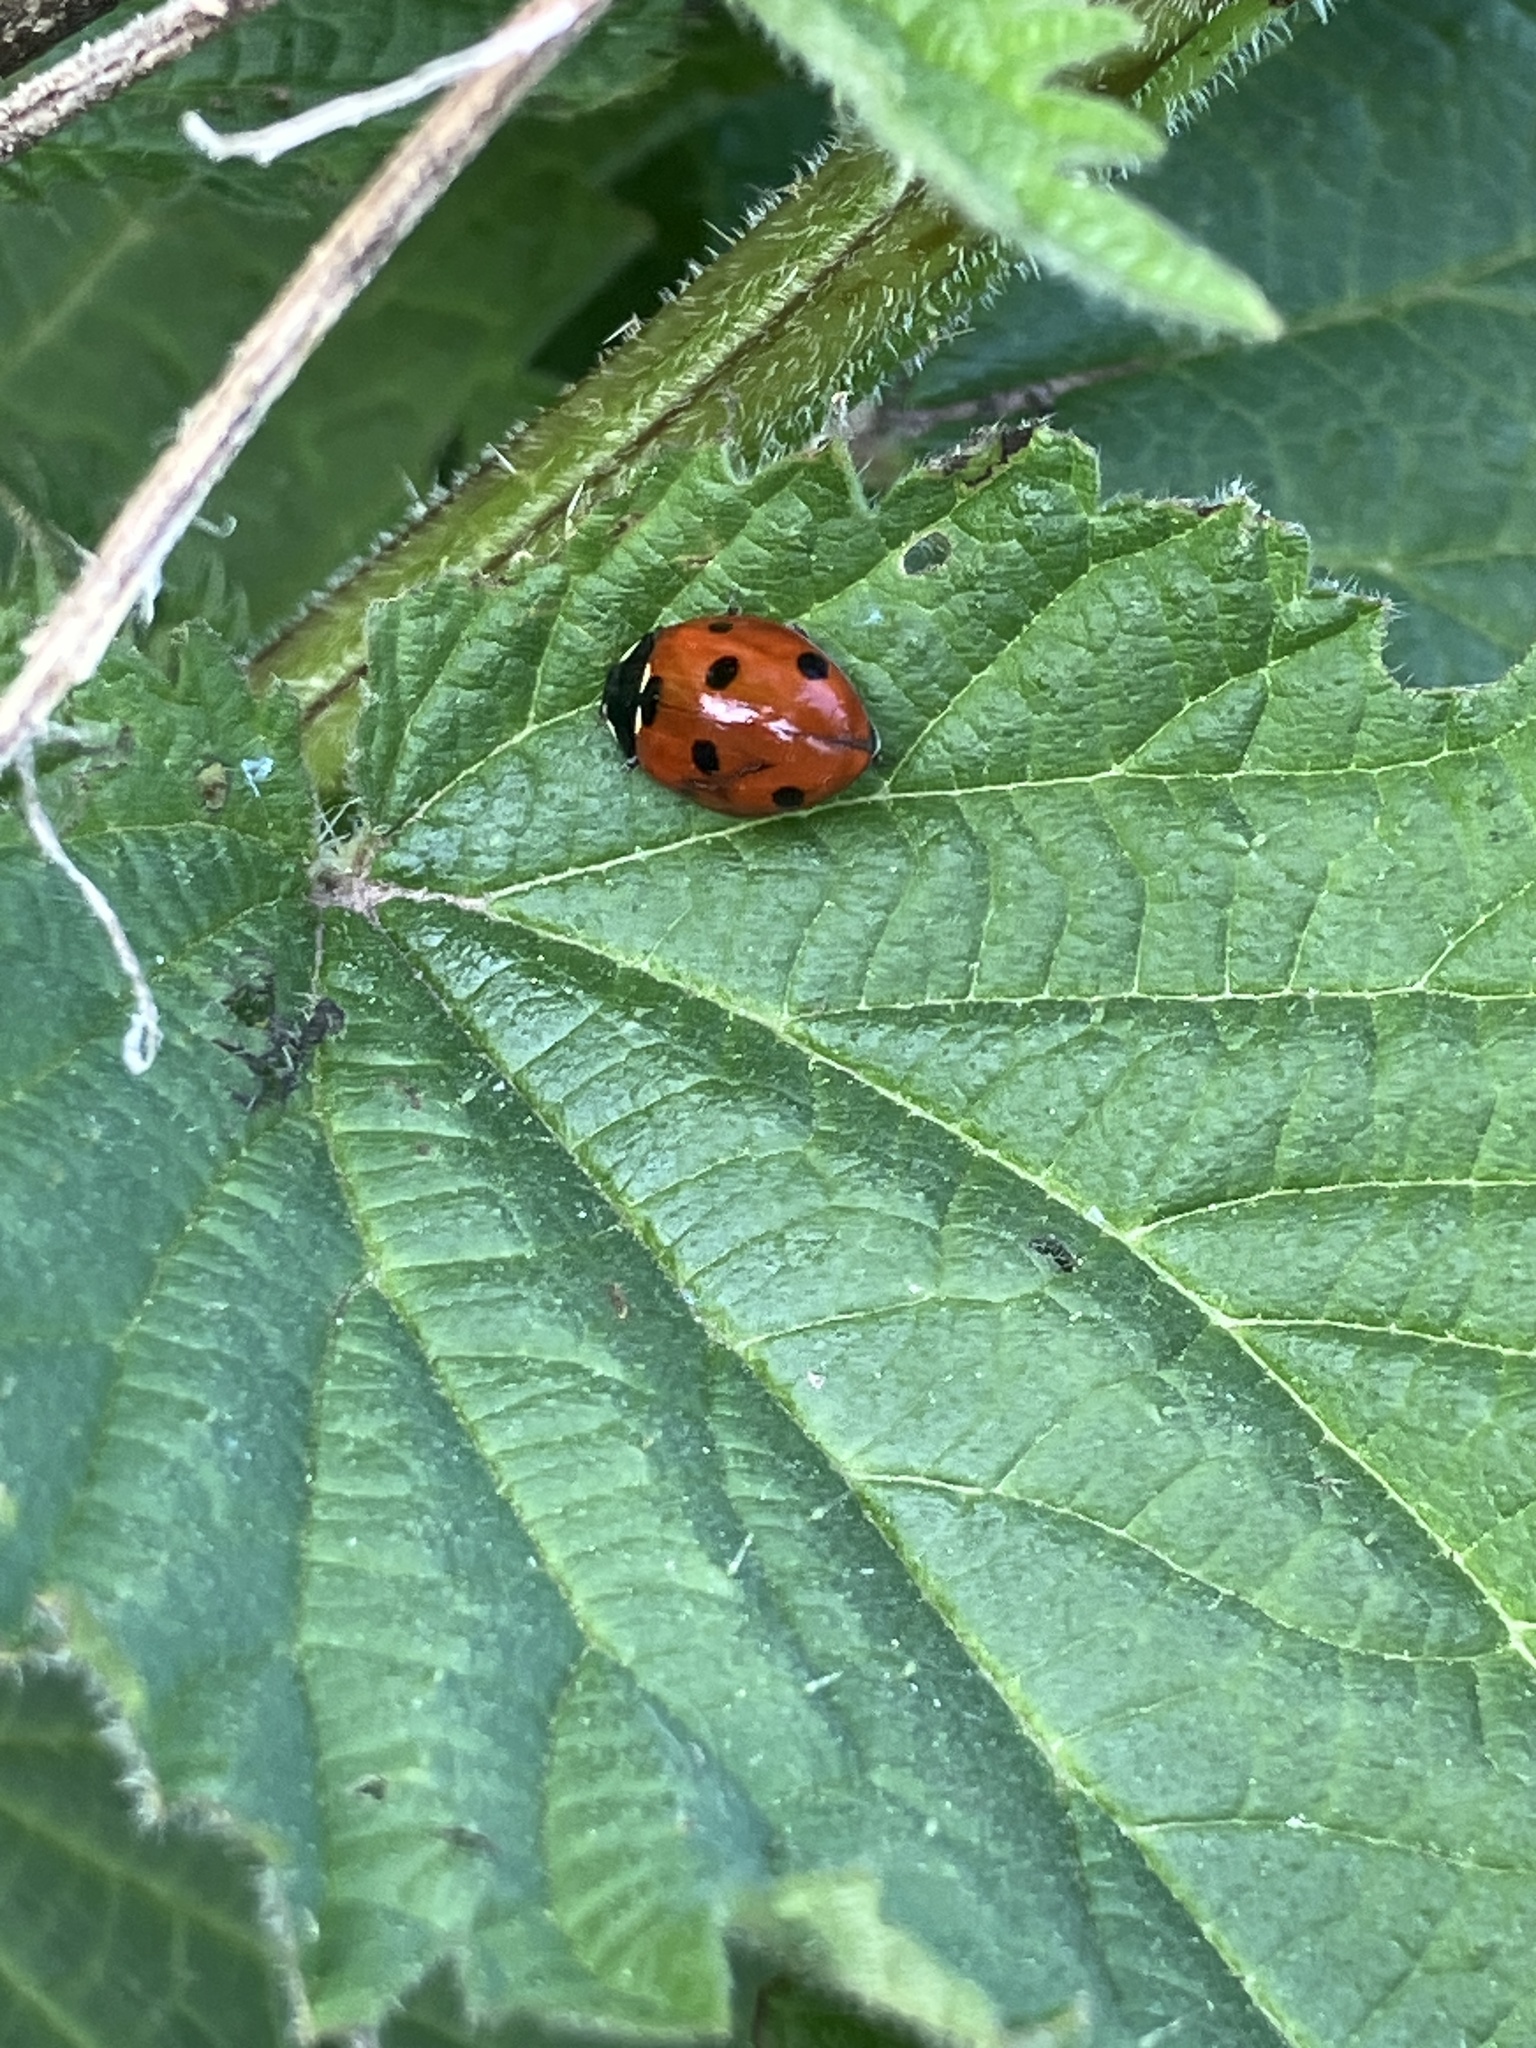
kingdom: Animalia
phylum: Arthropoda
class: Insecta
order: Coleoptera
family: Coccinellidae
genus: Coccinella
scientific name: Coccinella septempunctata
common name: Sevenspotted lady beetle
